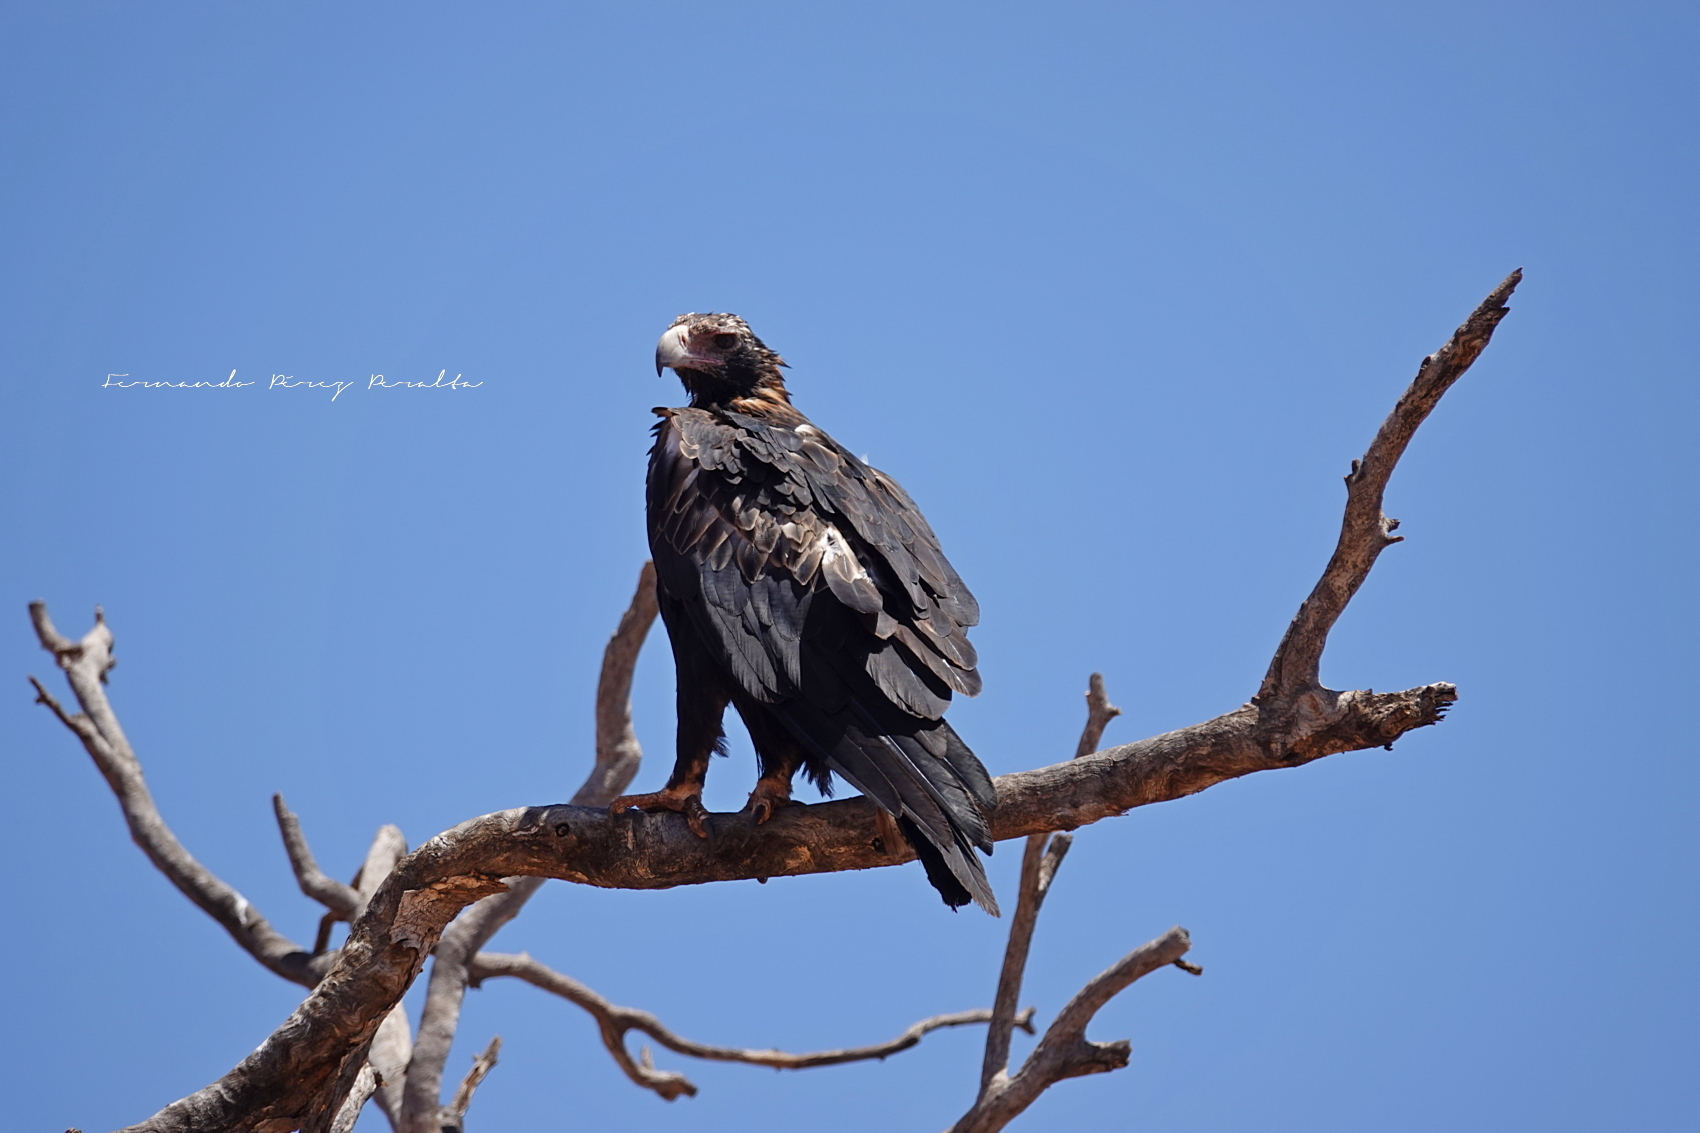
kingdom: Animalia
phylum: Chordata
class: Aves
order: Accipitriformes
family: Accipitridae
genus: Aquila
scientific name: Aquila audax
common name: Wedge-tailed eagle
